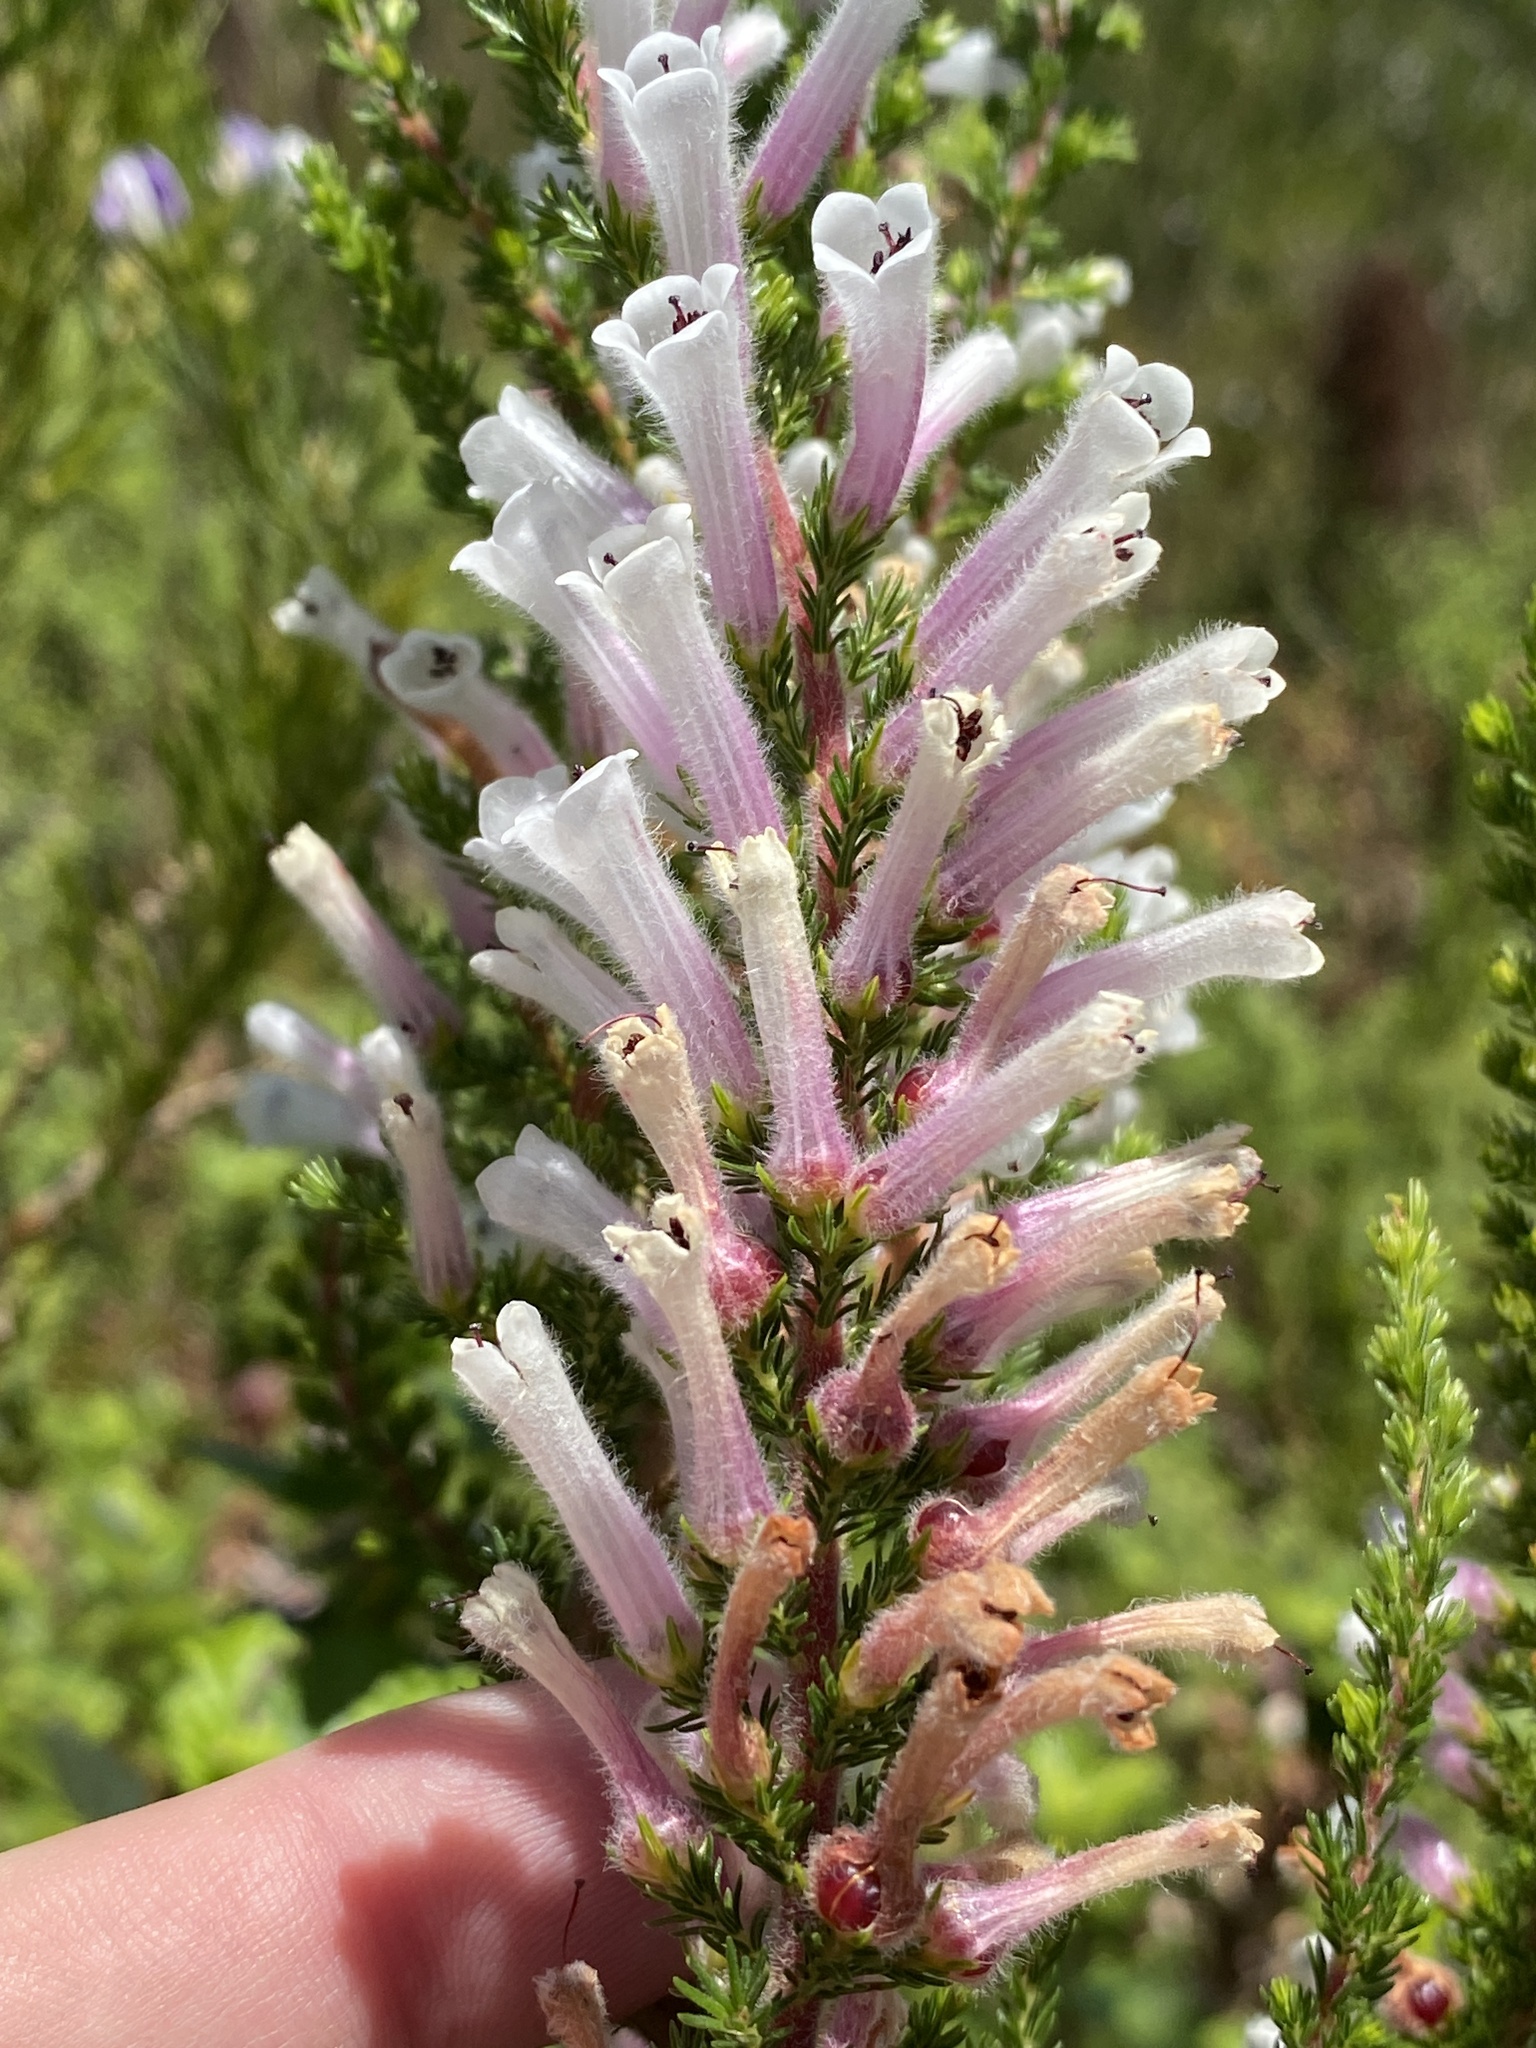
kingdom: Plantae
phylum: Tracheophyta
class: Magnoliopsida
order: Ericales
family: Ericaceae
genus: Erica
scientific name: Erica perspicua
